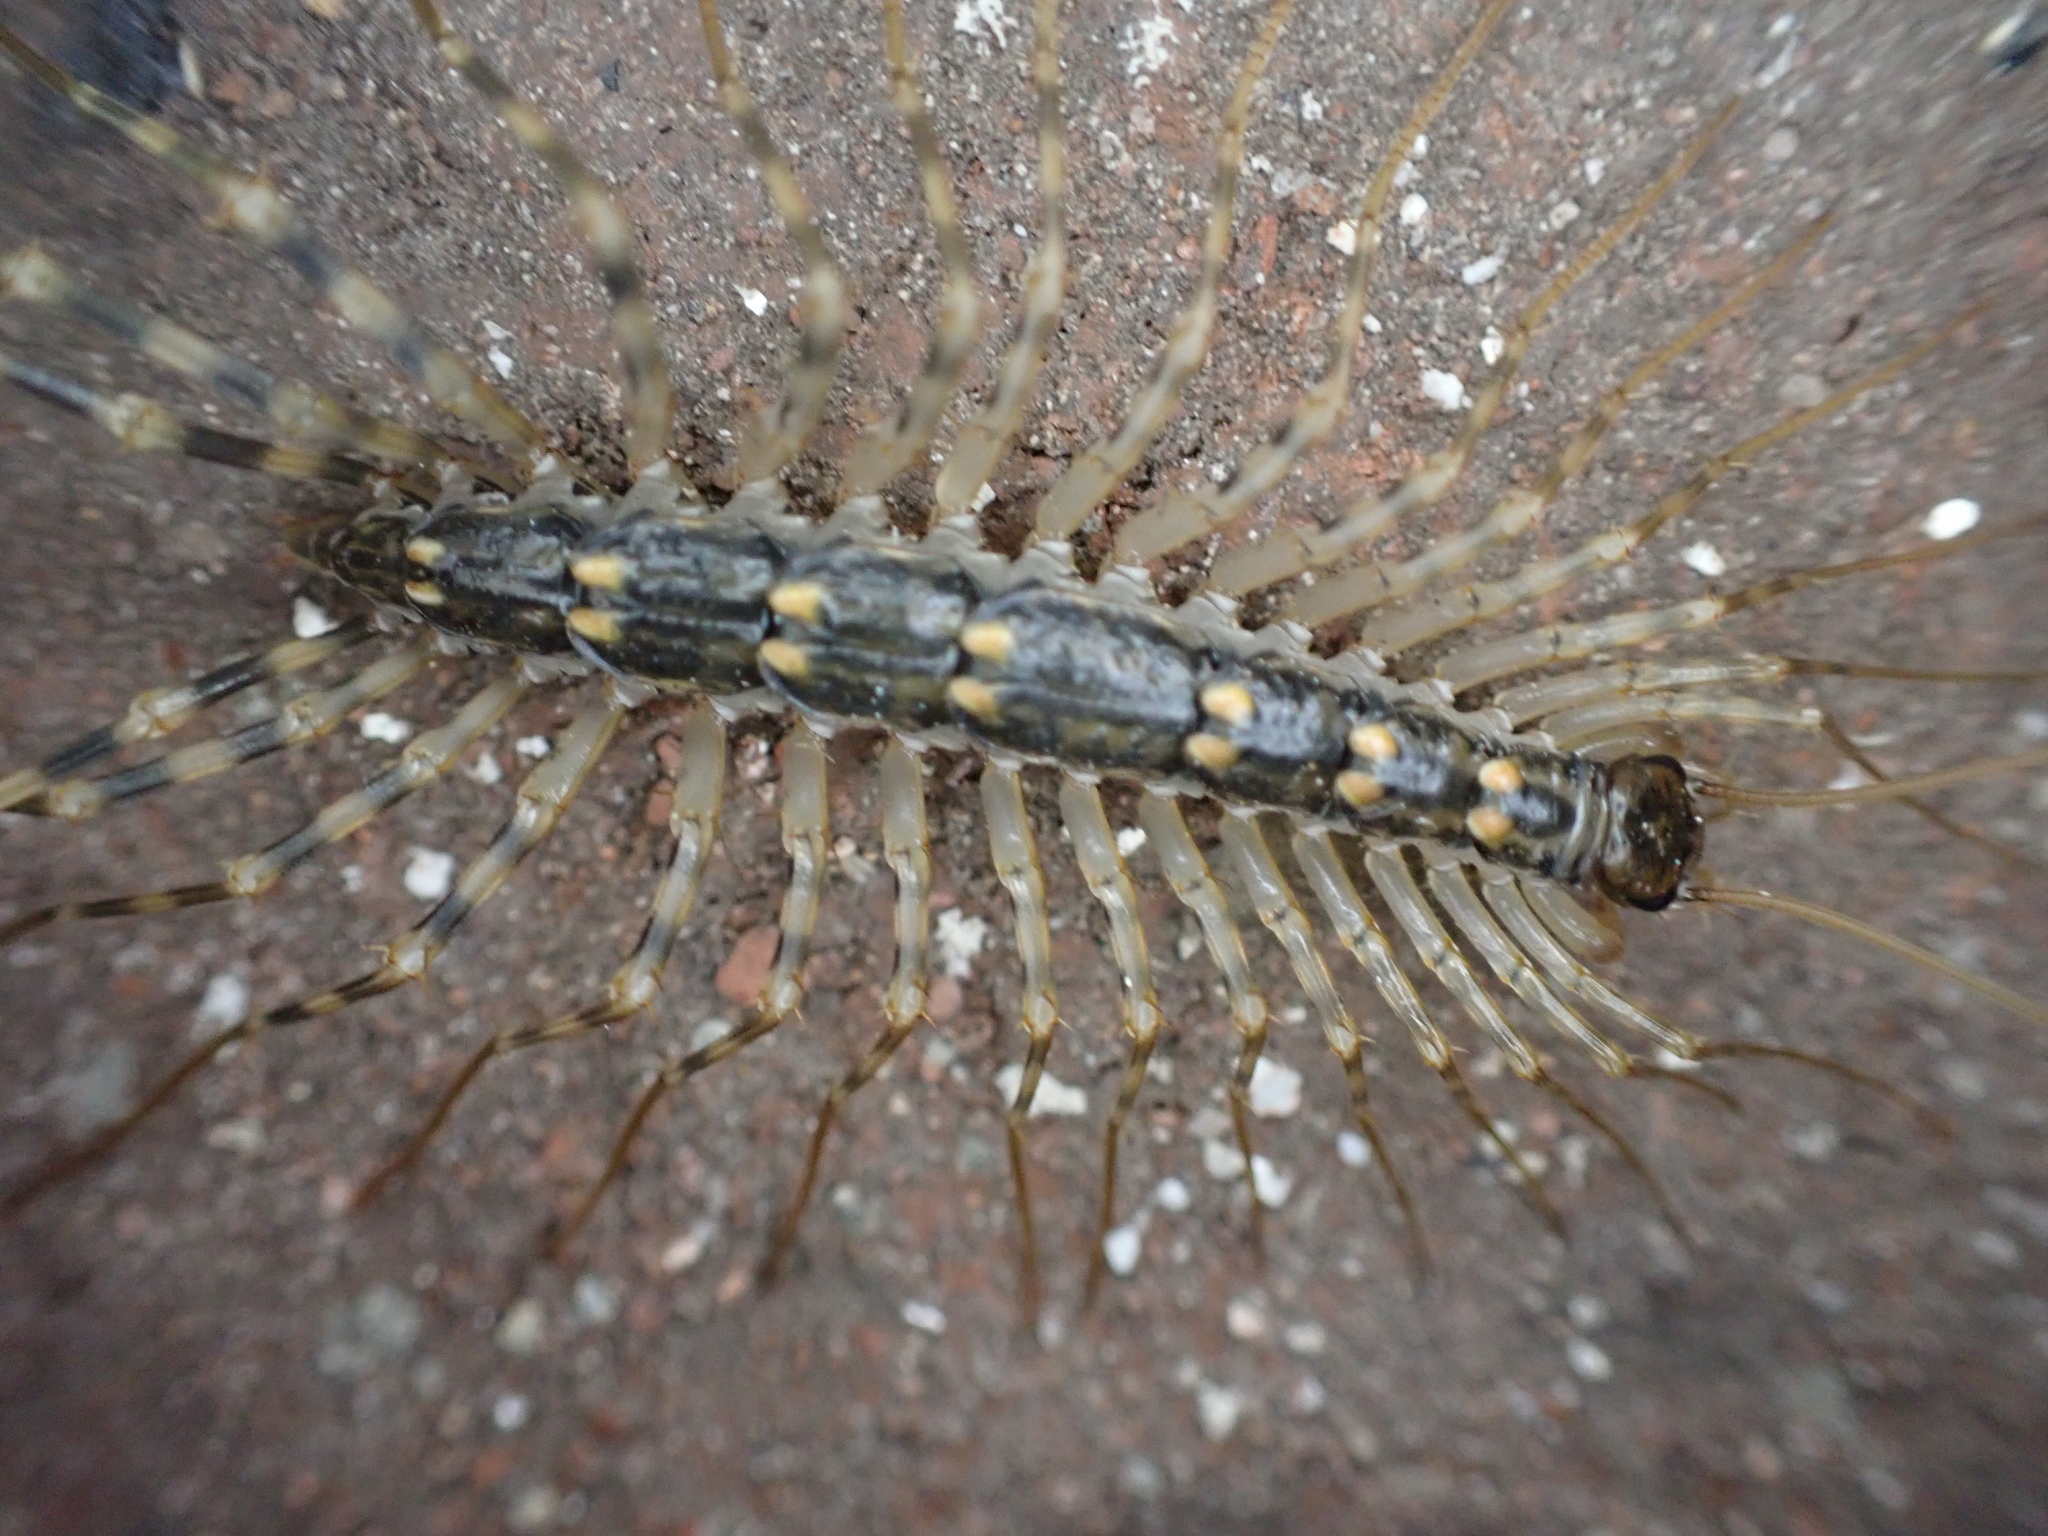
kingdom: Animalia
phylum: Arthropoda
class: Chilopoda
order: Scutigeromorpha
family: Scutigeridae
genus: Scutigera
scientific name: Scutigera coleoptrata
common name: House centipede
